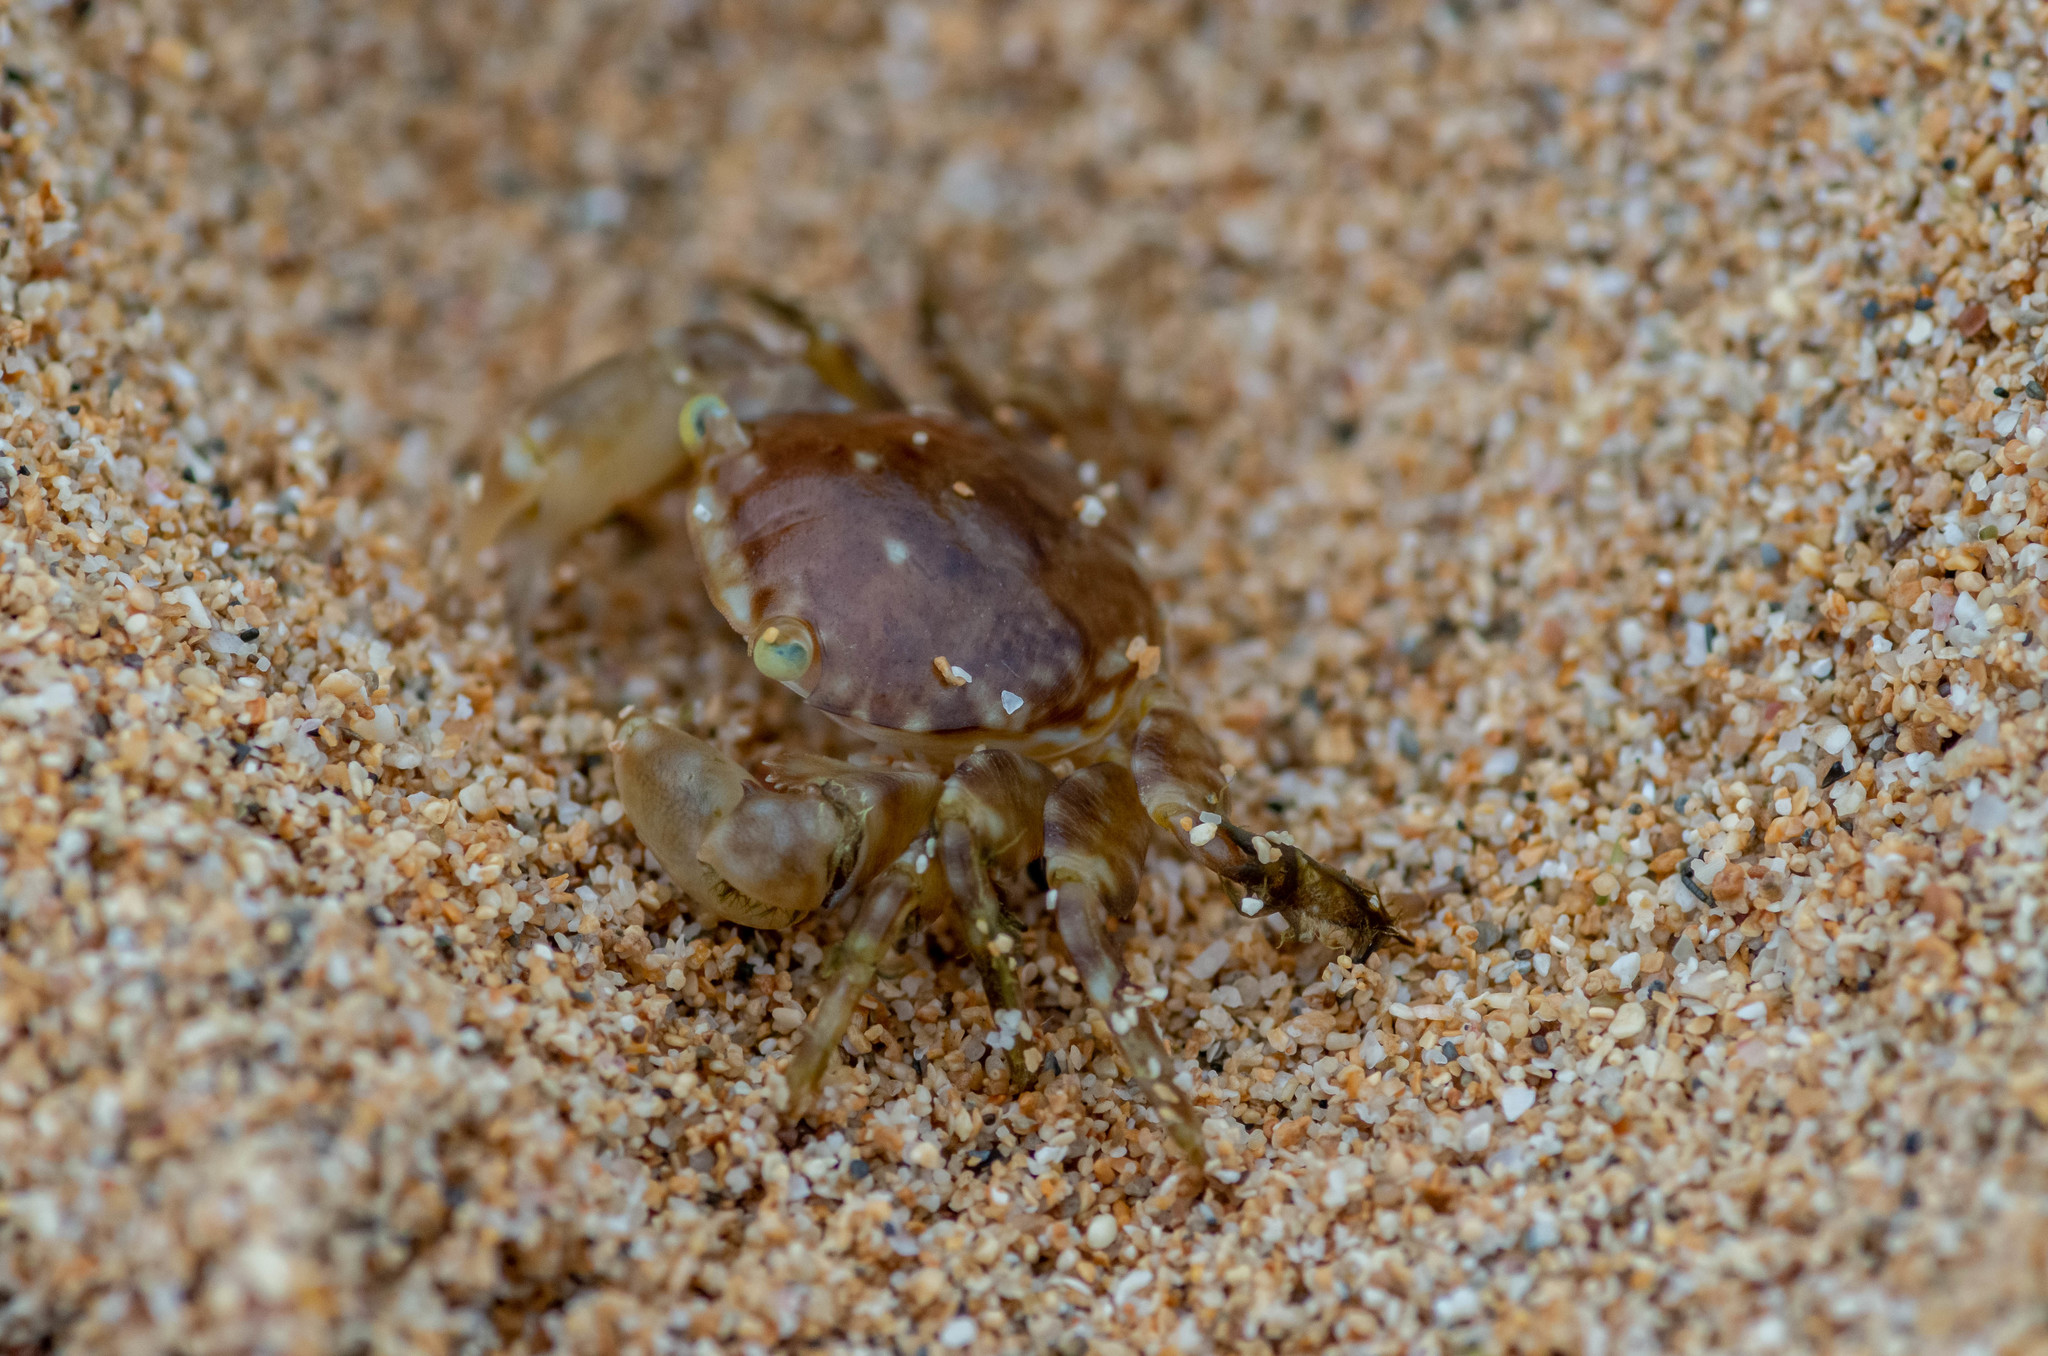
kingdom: Animalia
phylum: Arthropoda
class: Malacostraca
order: Decapoda
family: Grapsidae
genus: Planes
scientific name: Planes minutus
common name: Gulf weed crab
